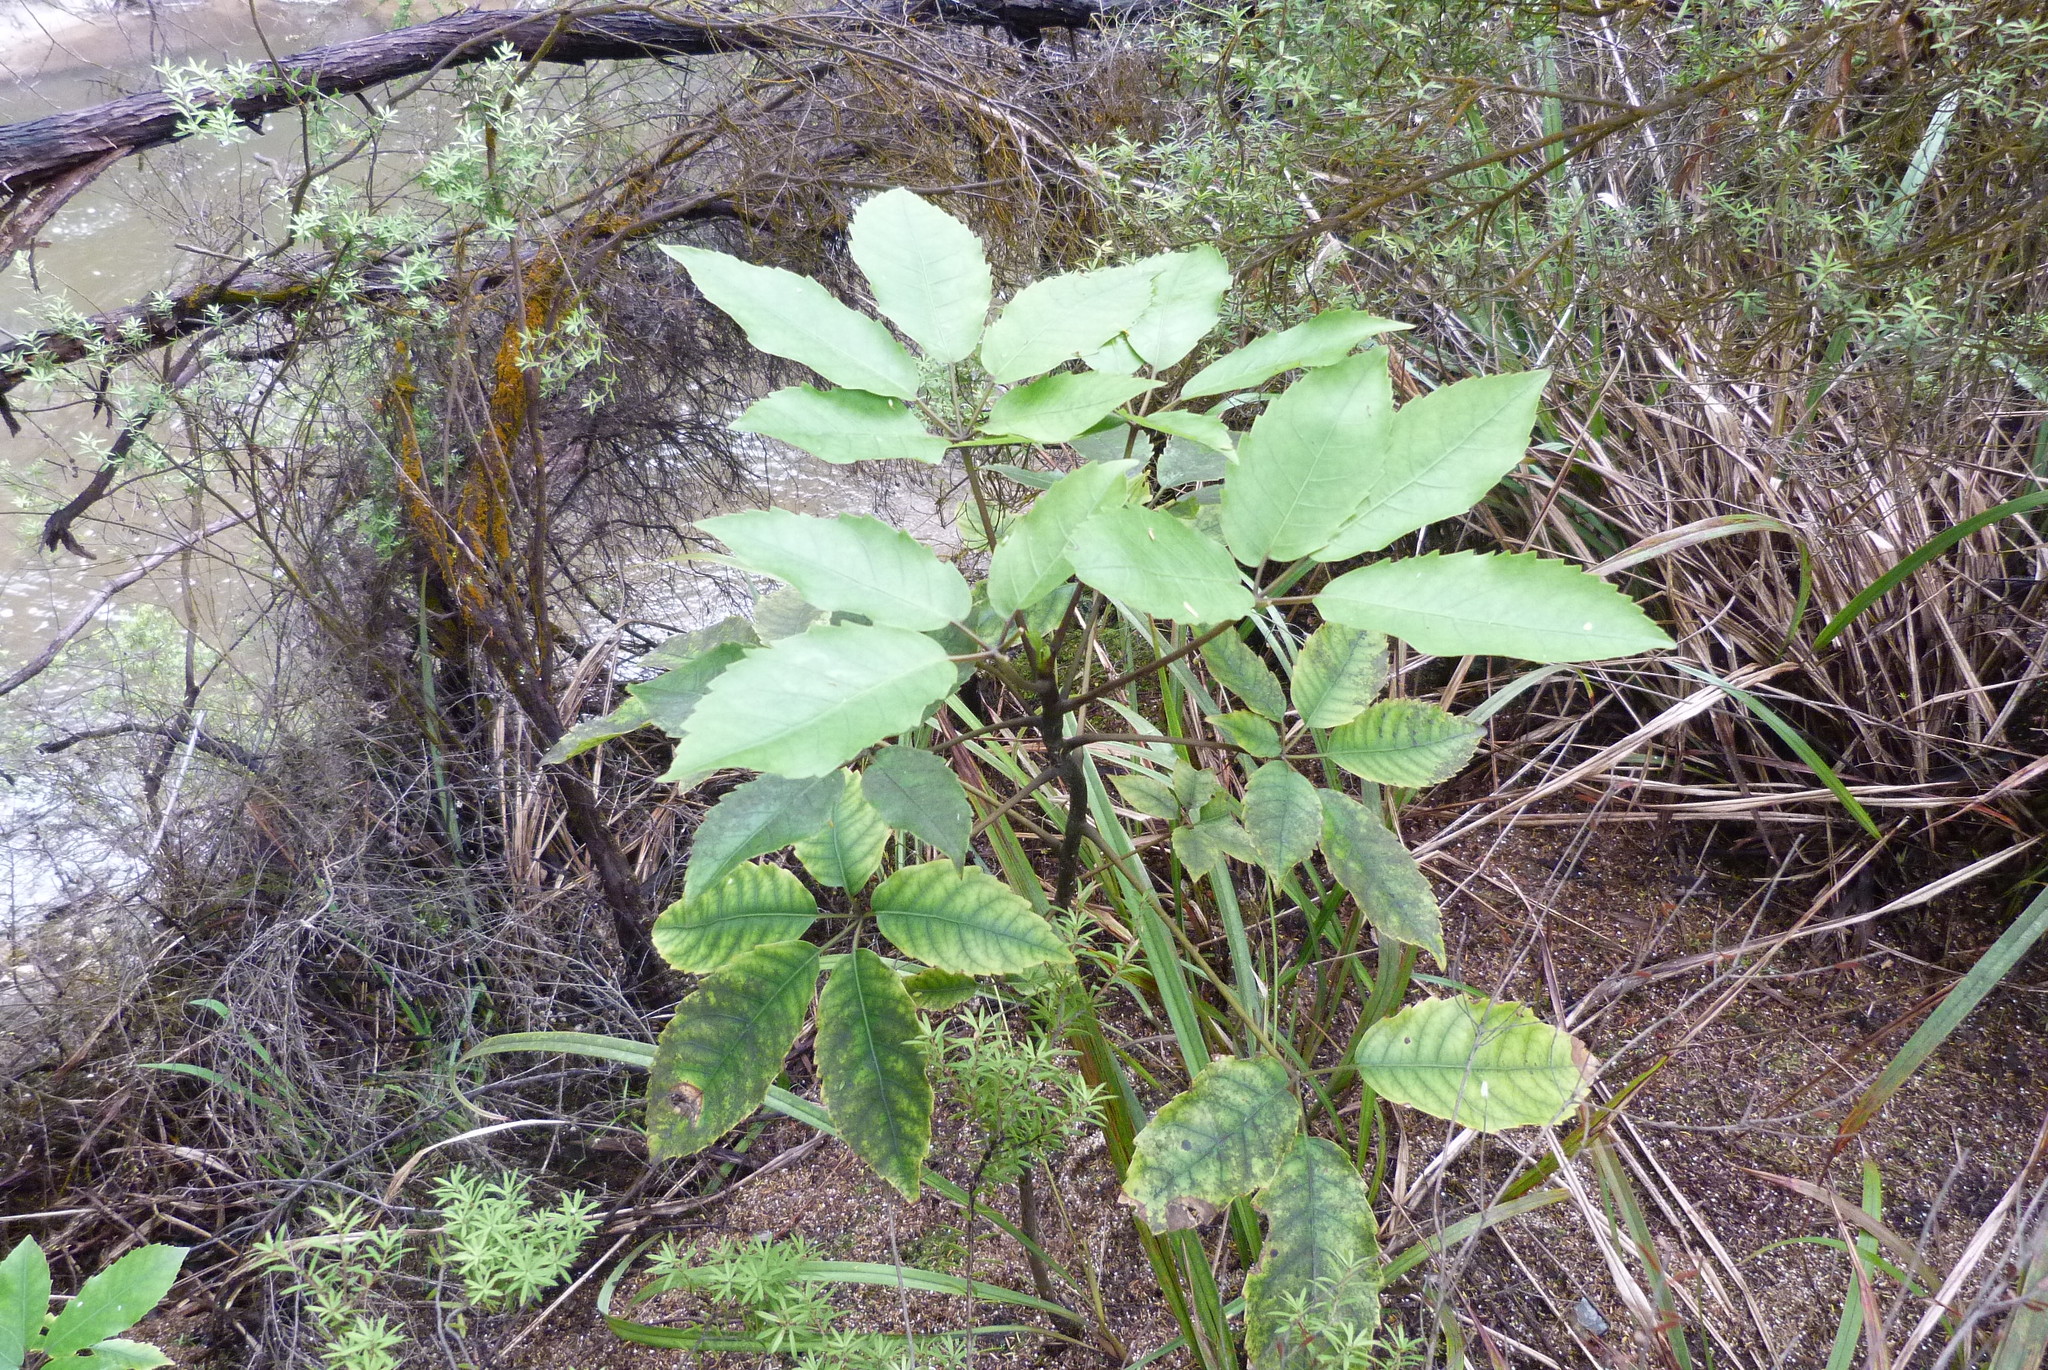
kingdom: Plantae
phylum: Tracheophyta
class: Magnoliopsida
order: Apiales
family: Araliaceae
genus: Neopanax
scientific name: Neopanax arboreus
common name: Five-fingers
